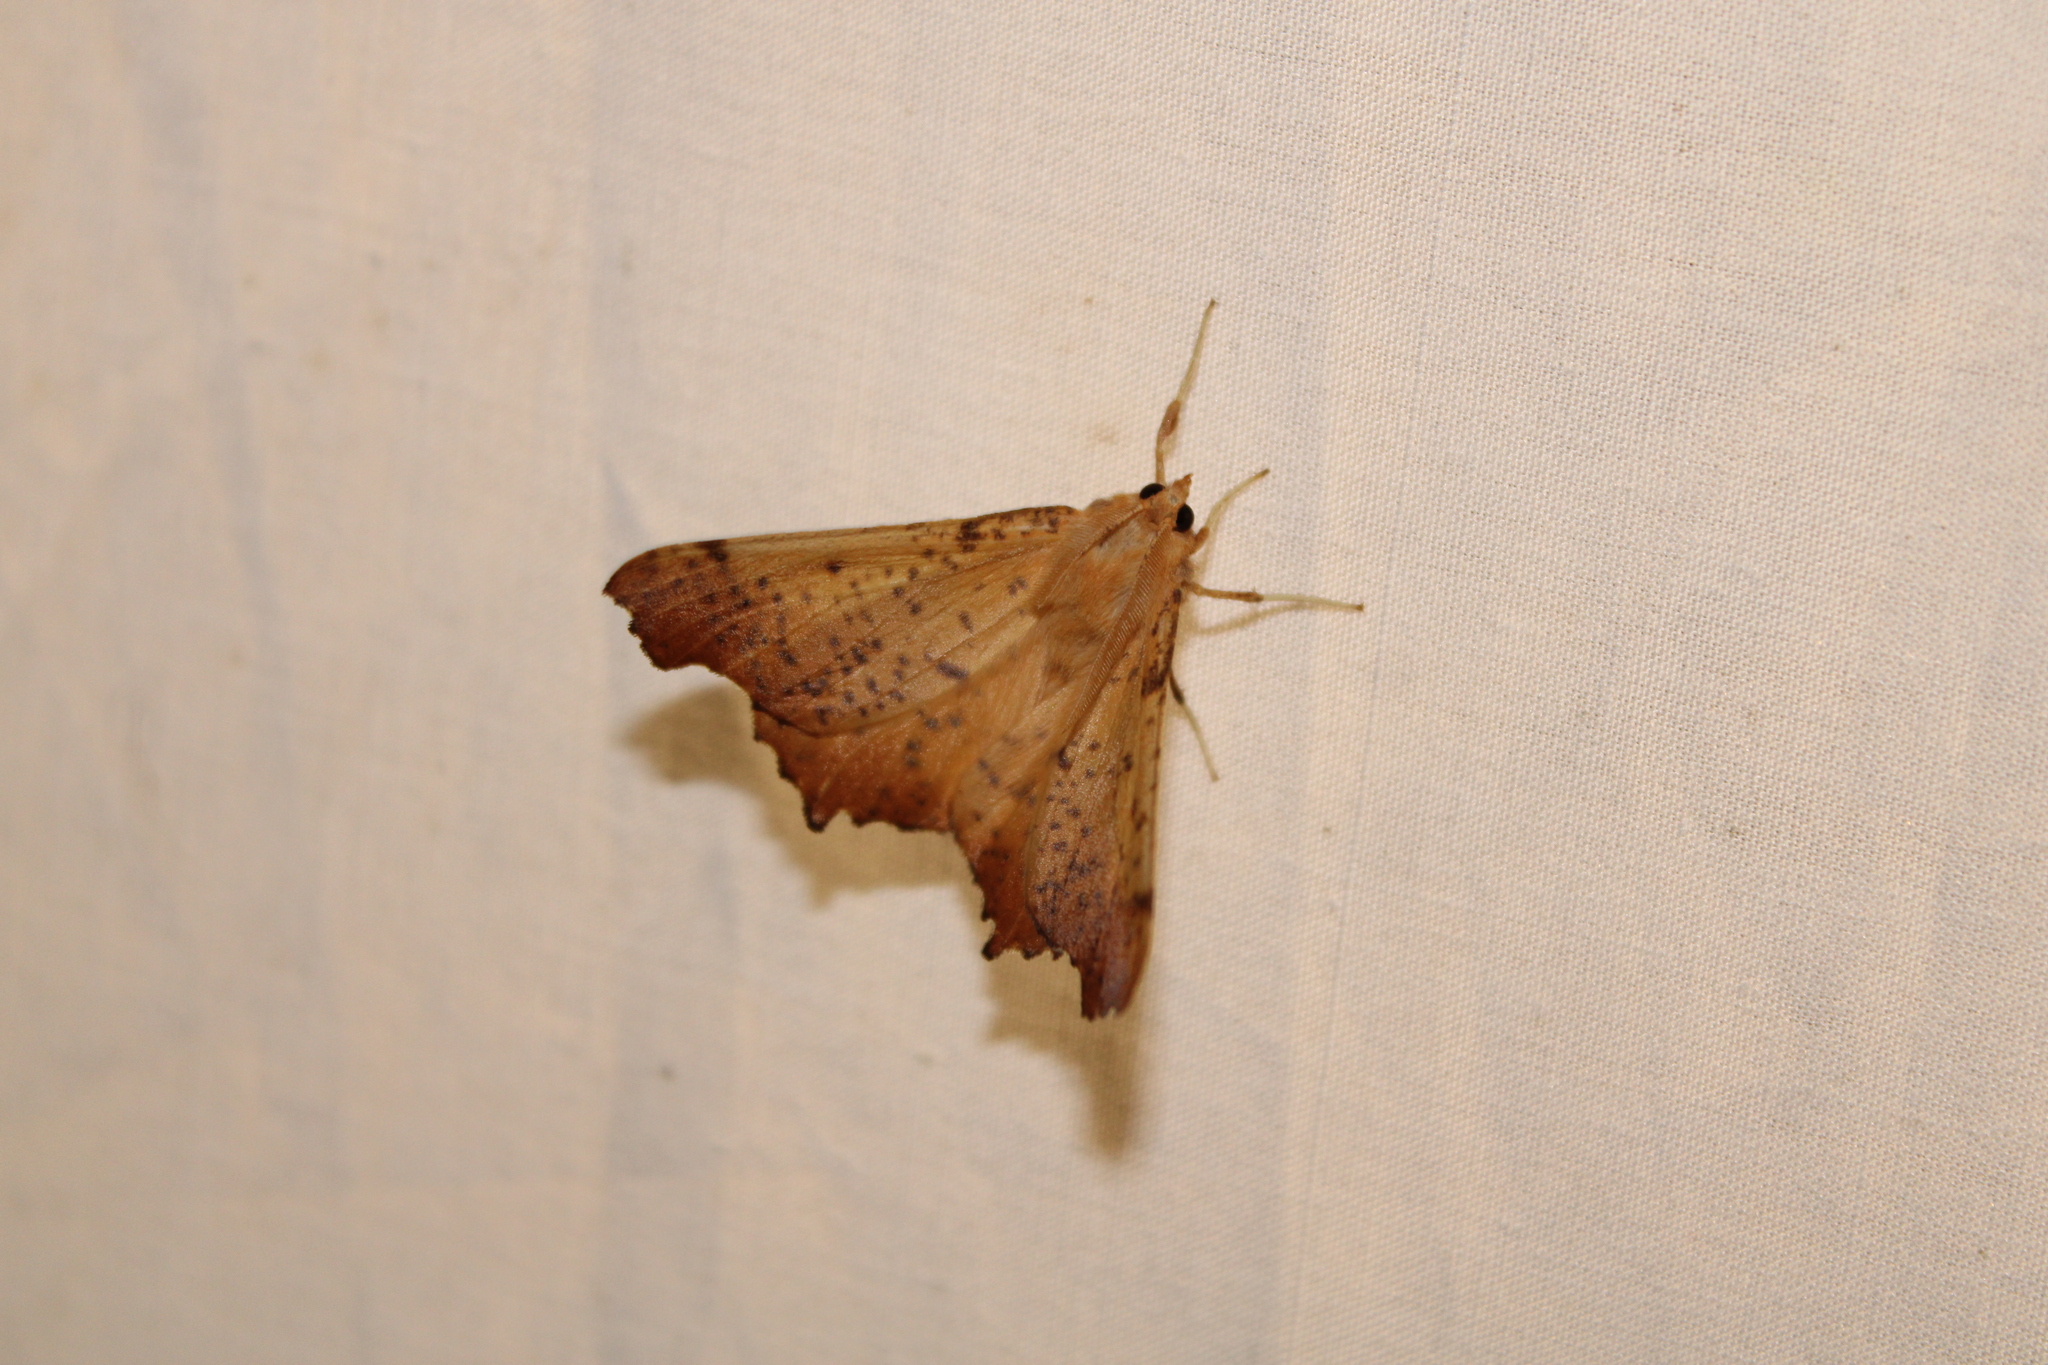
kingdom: Animalia
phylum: Arthropoda
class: Insecta
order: Lepidoptera
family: Geometridae
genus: Ennomos
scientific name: Ennomos magnaria
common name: Maple spanworm
